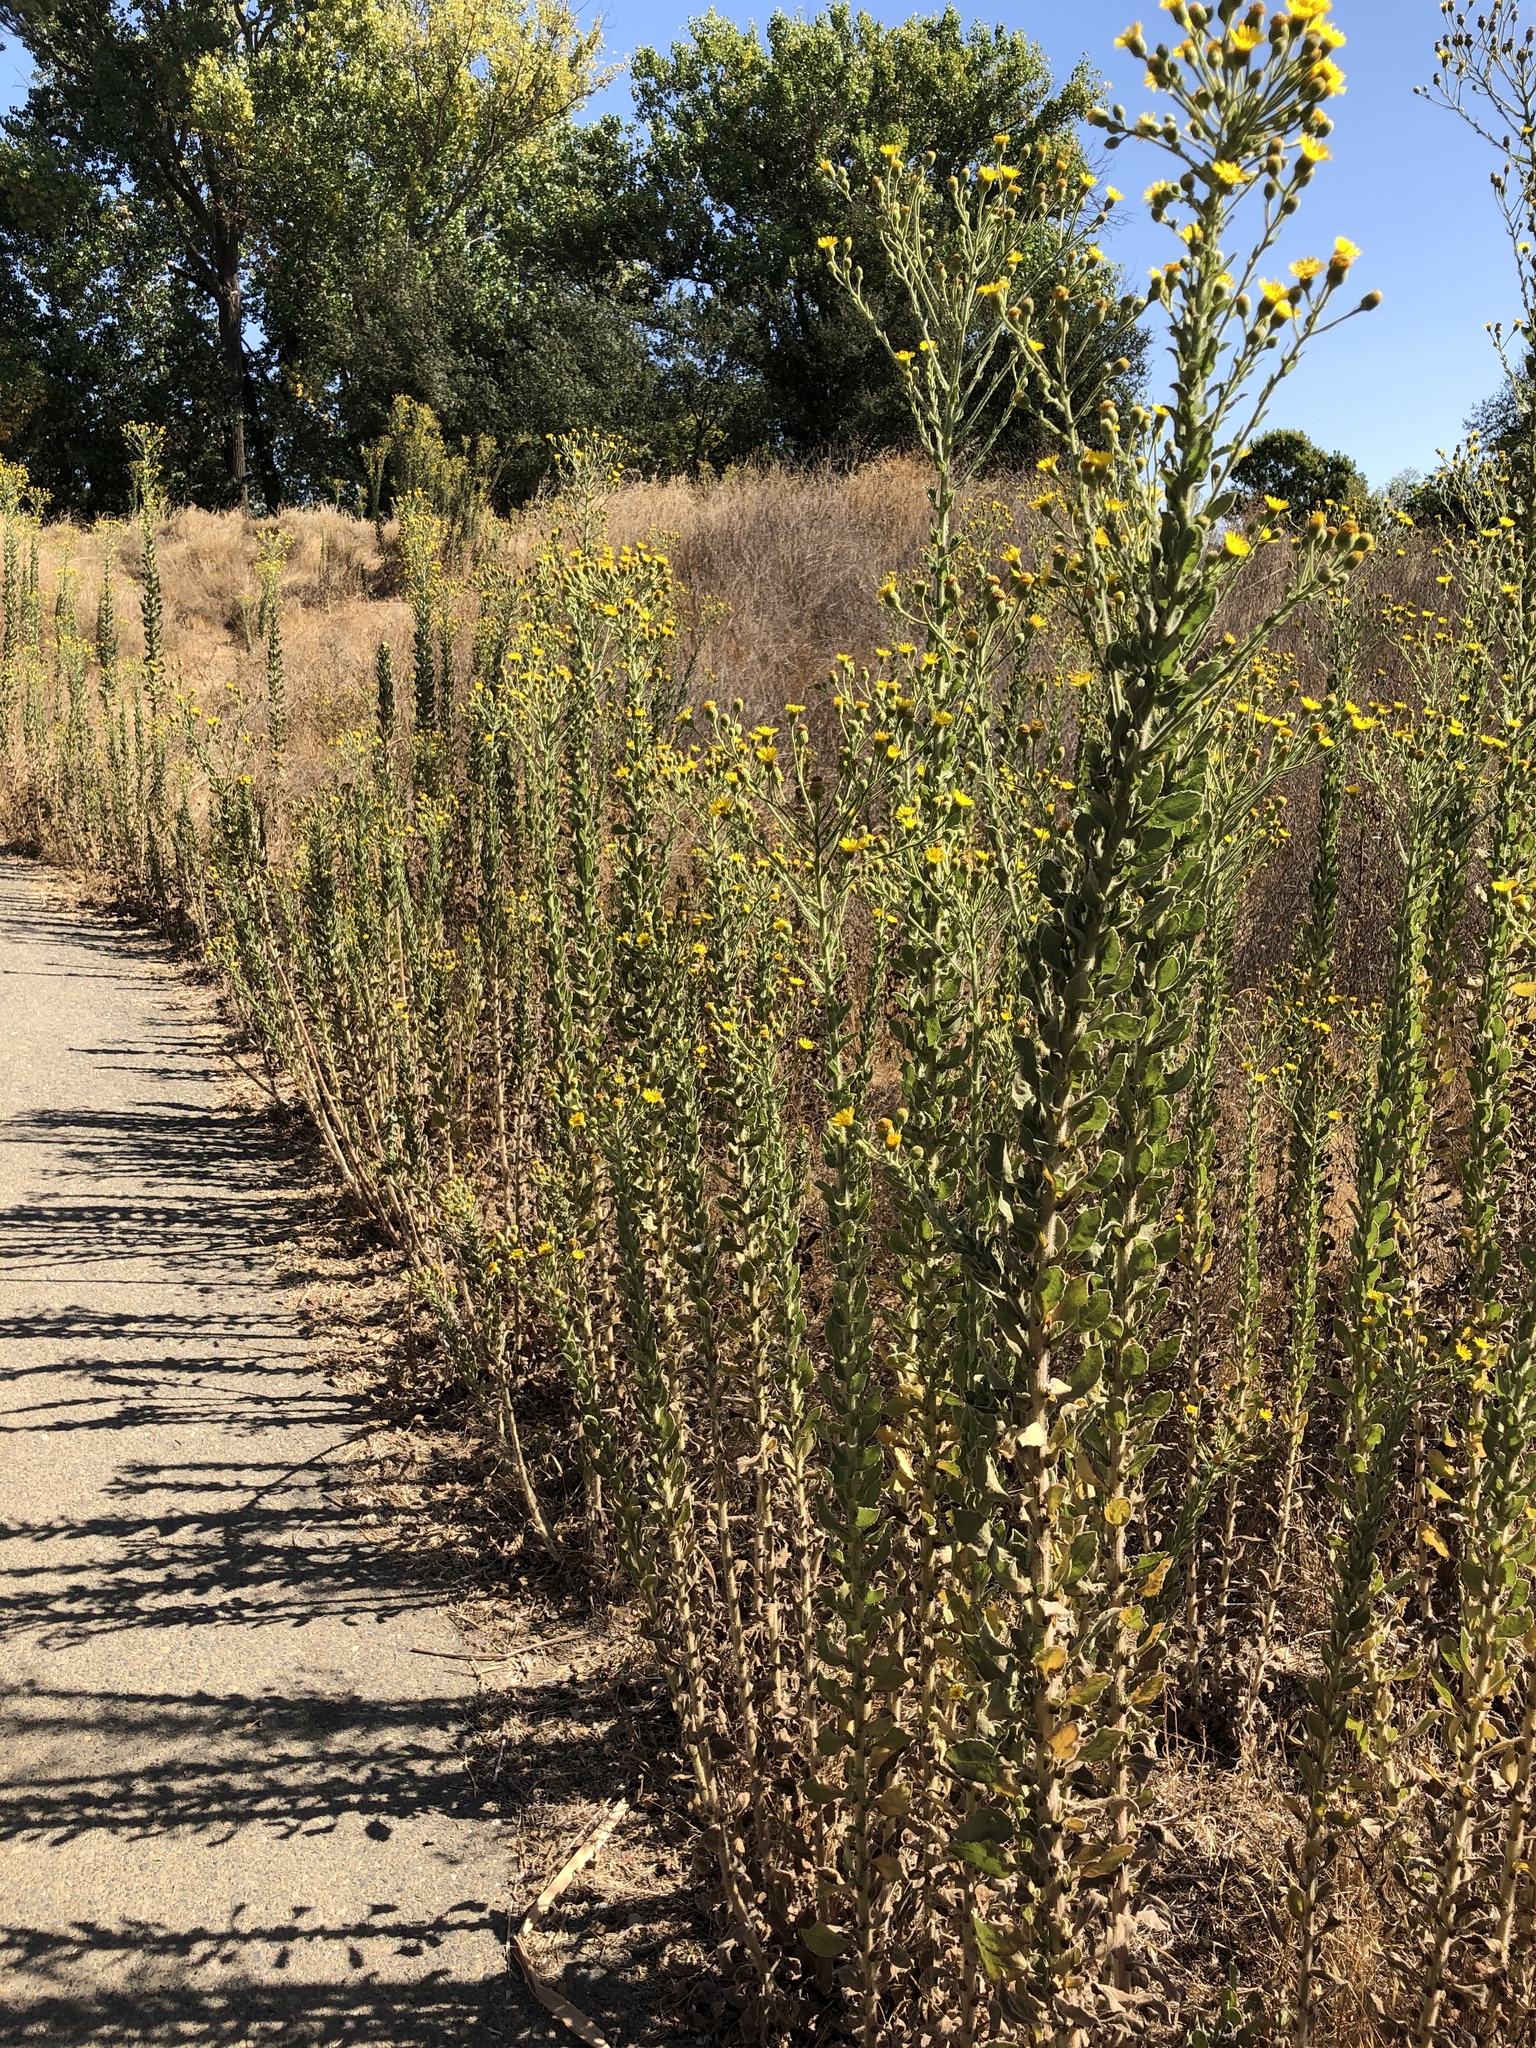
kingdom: Plantae
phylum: Tracheophyta
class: Magnoliopsida
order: Asterales
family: Asteraceae
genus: Heterotheca
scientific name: Heterotheca grandiflora
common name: Telegraphweed
